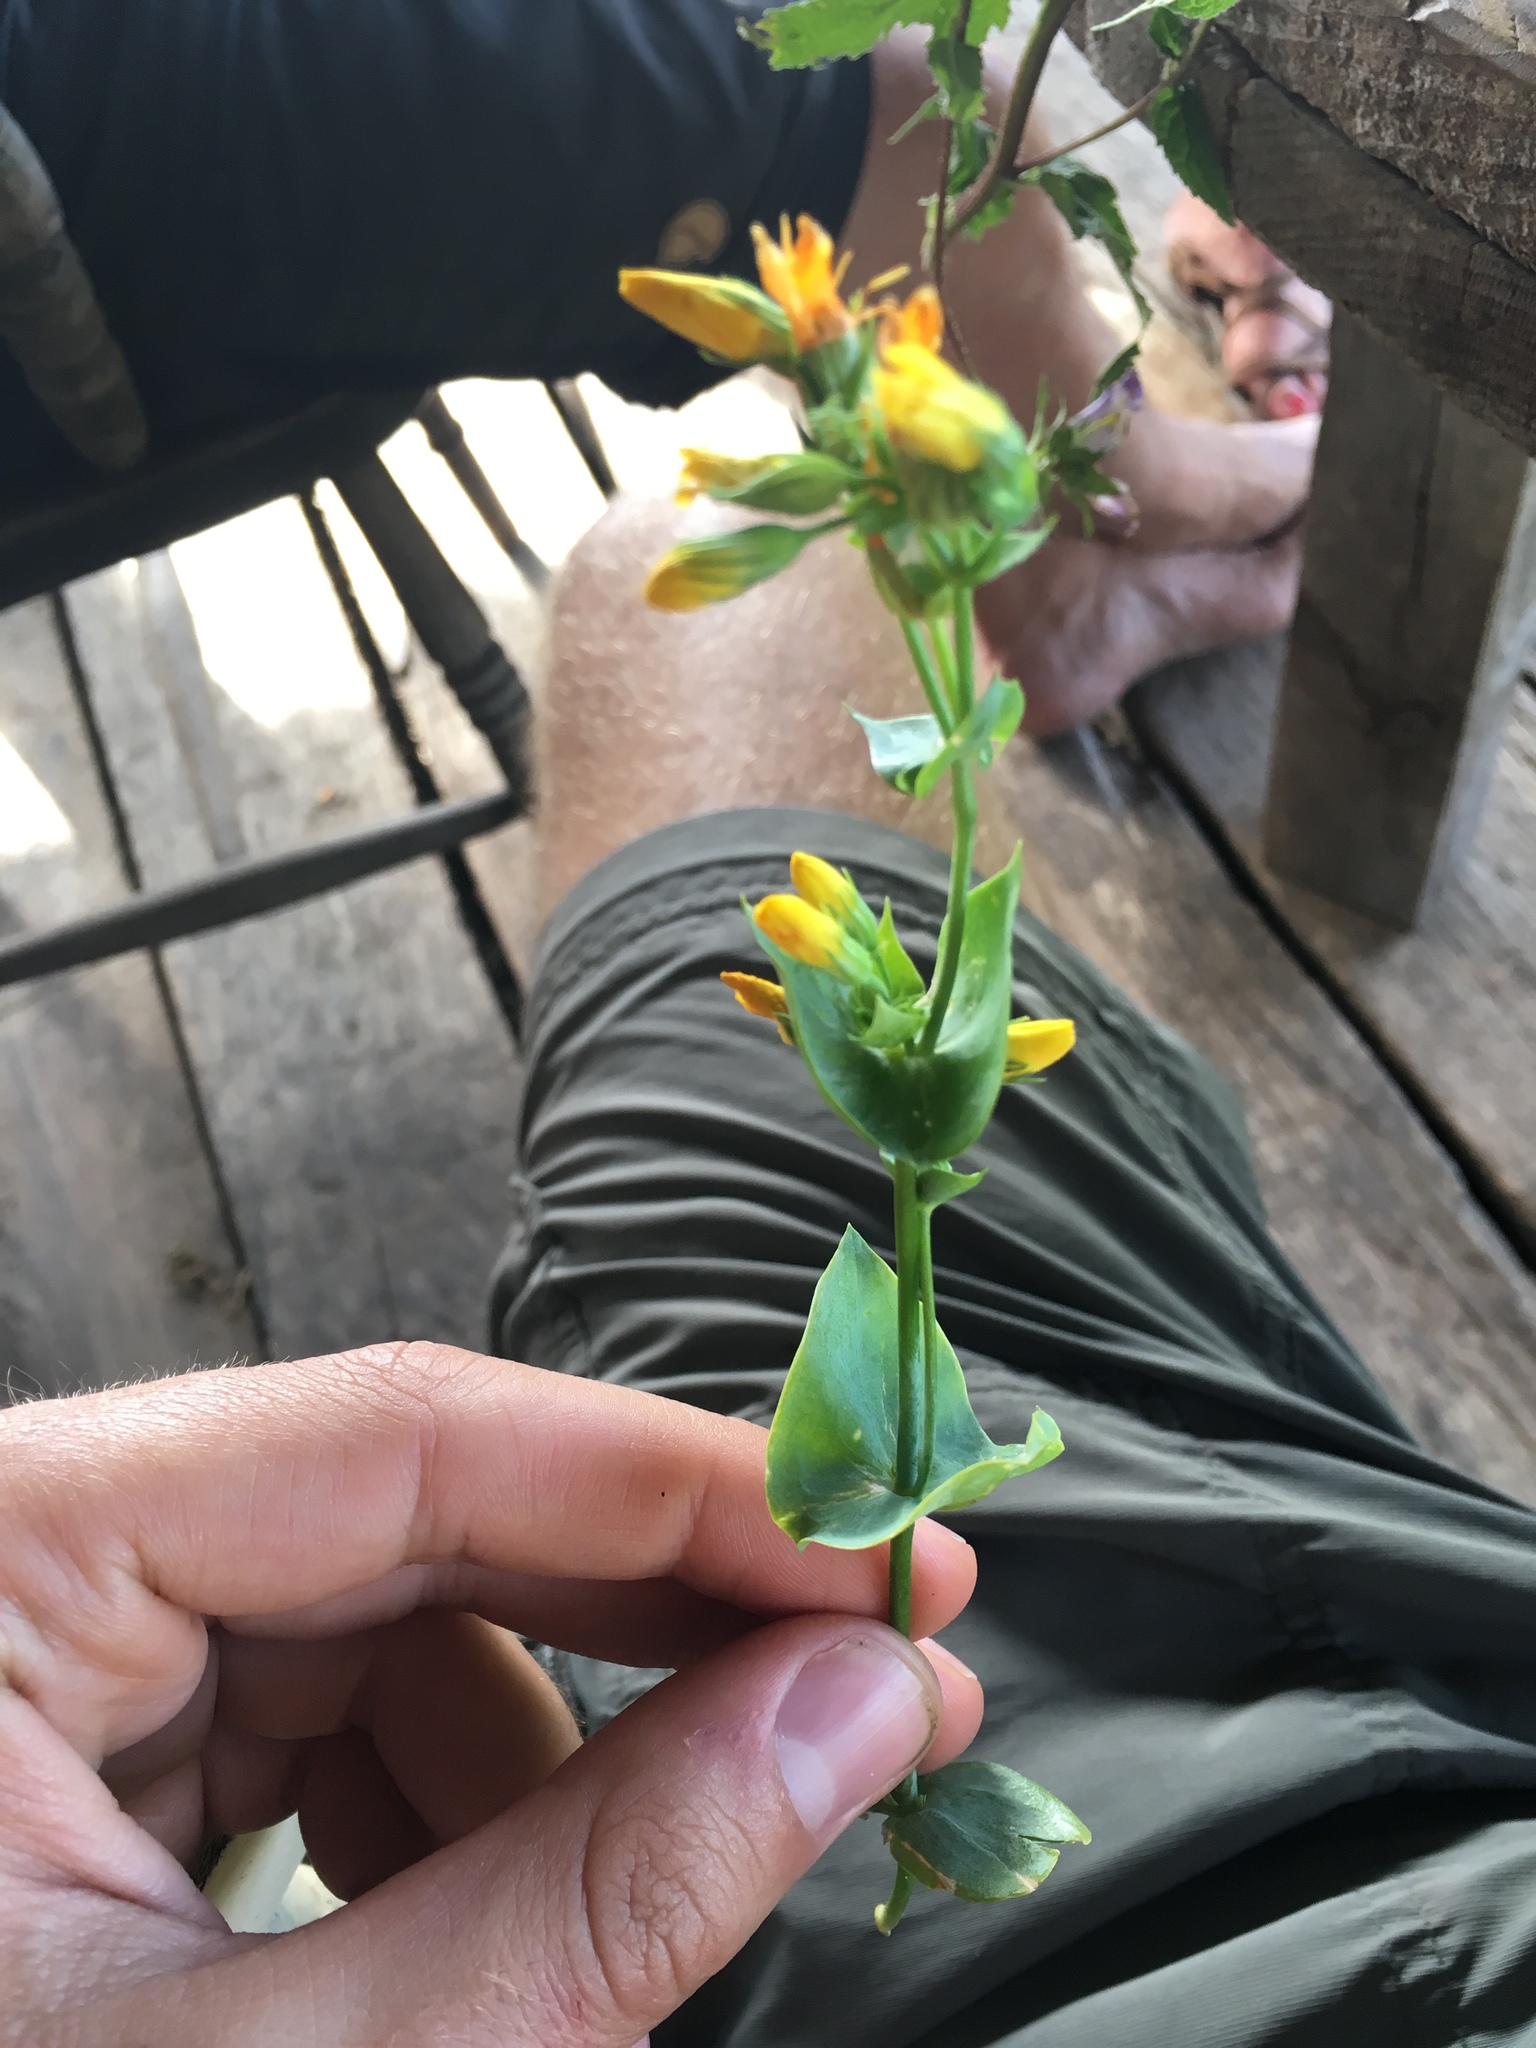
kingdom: Plantae
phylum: Tracheophyta
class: Magnoliopsida
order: Gentianales
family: Gentianaceae
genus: Blackstonia
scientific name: Blackstonia perfoliata
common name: Yellow-wort
